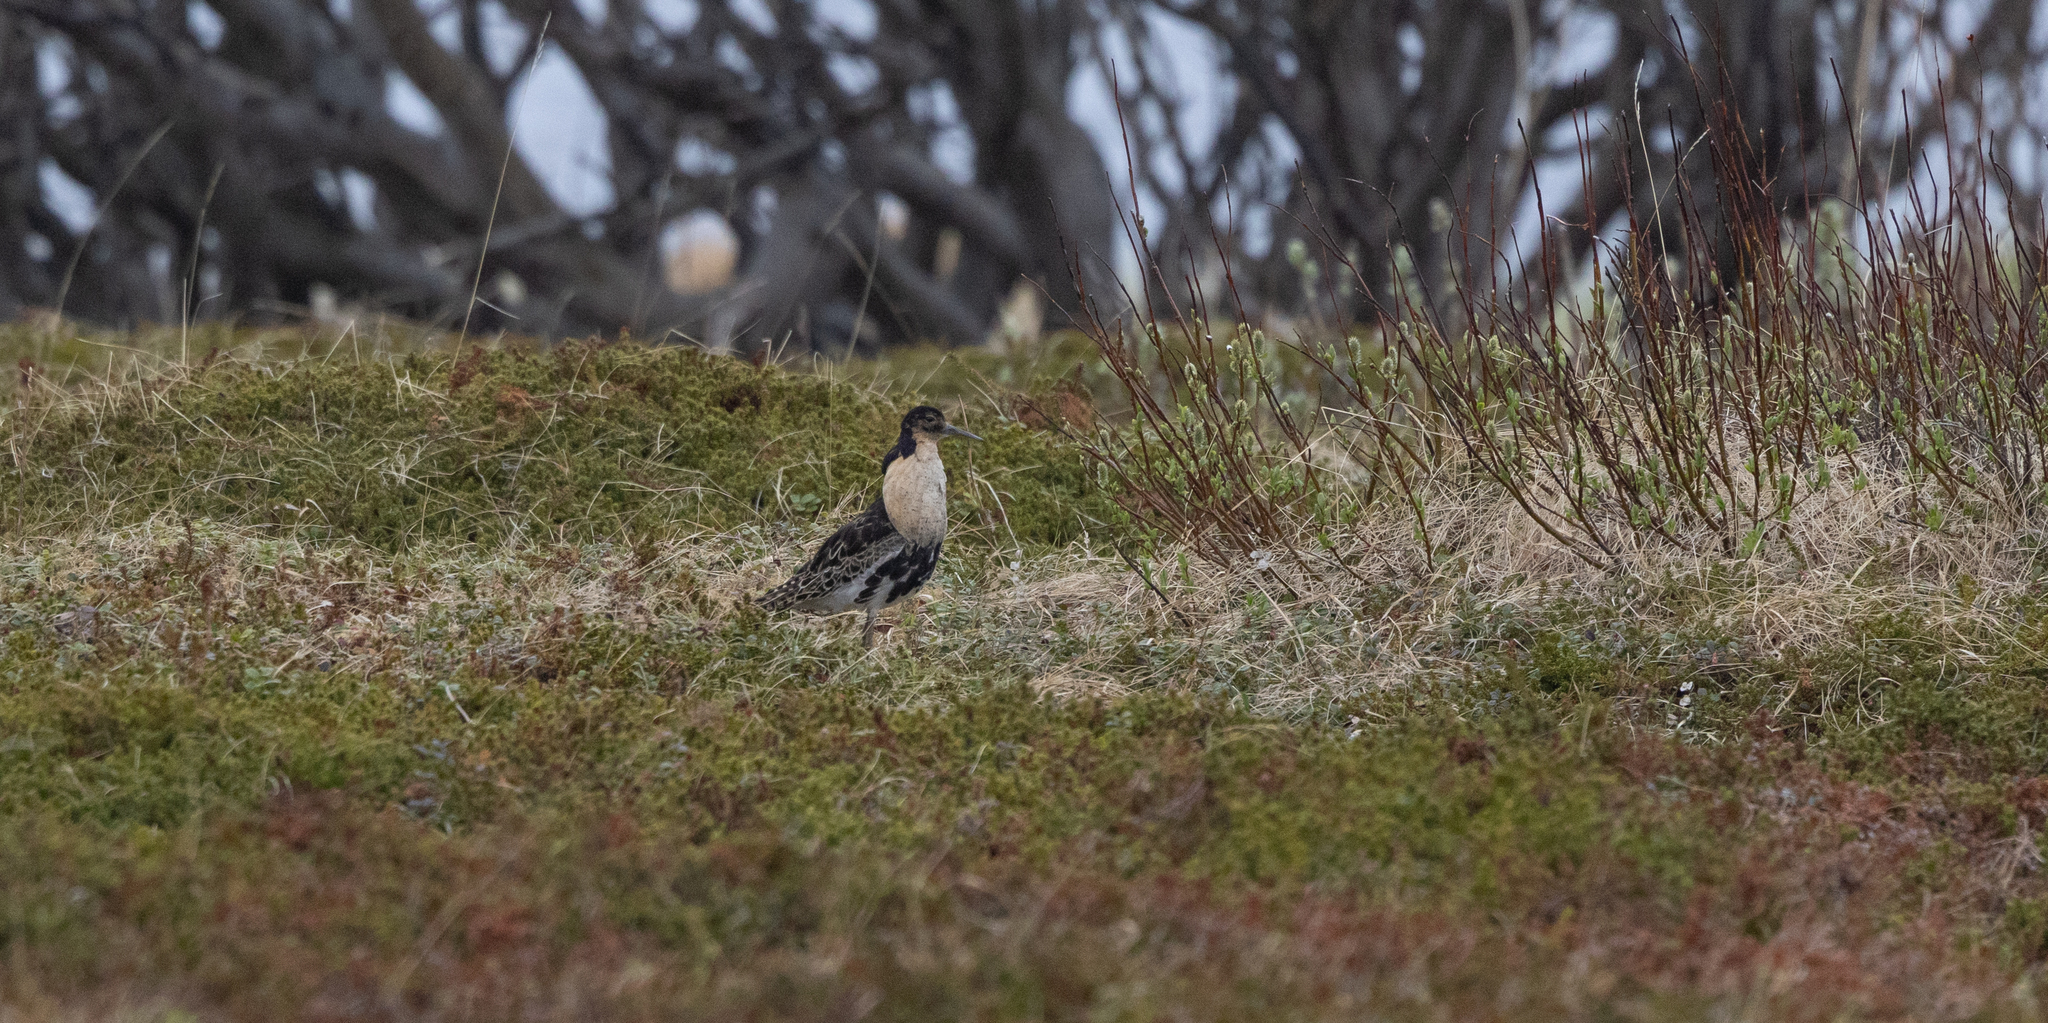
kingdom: Animalia
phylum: Chordata
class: Aves
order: Charadriiformes
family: Scolopacidae
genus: Calidris
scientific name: Calidris pugnax
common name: Ruff
